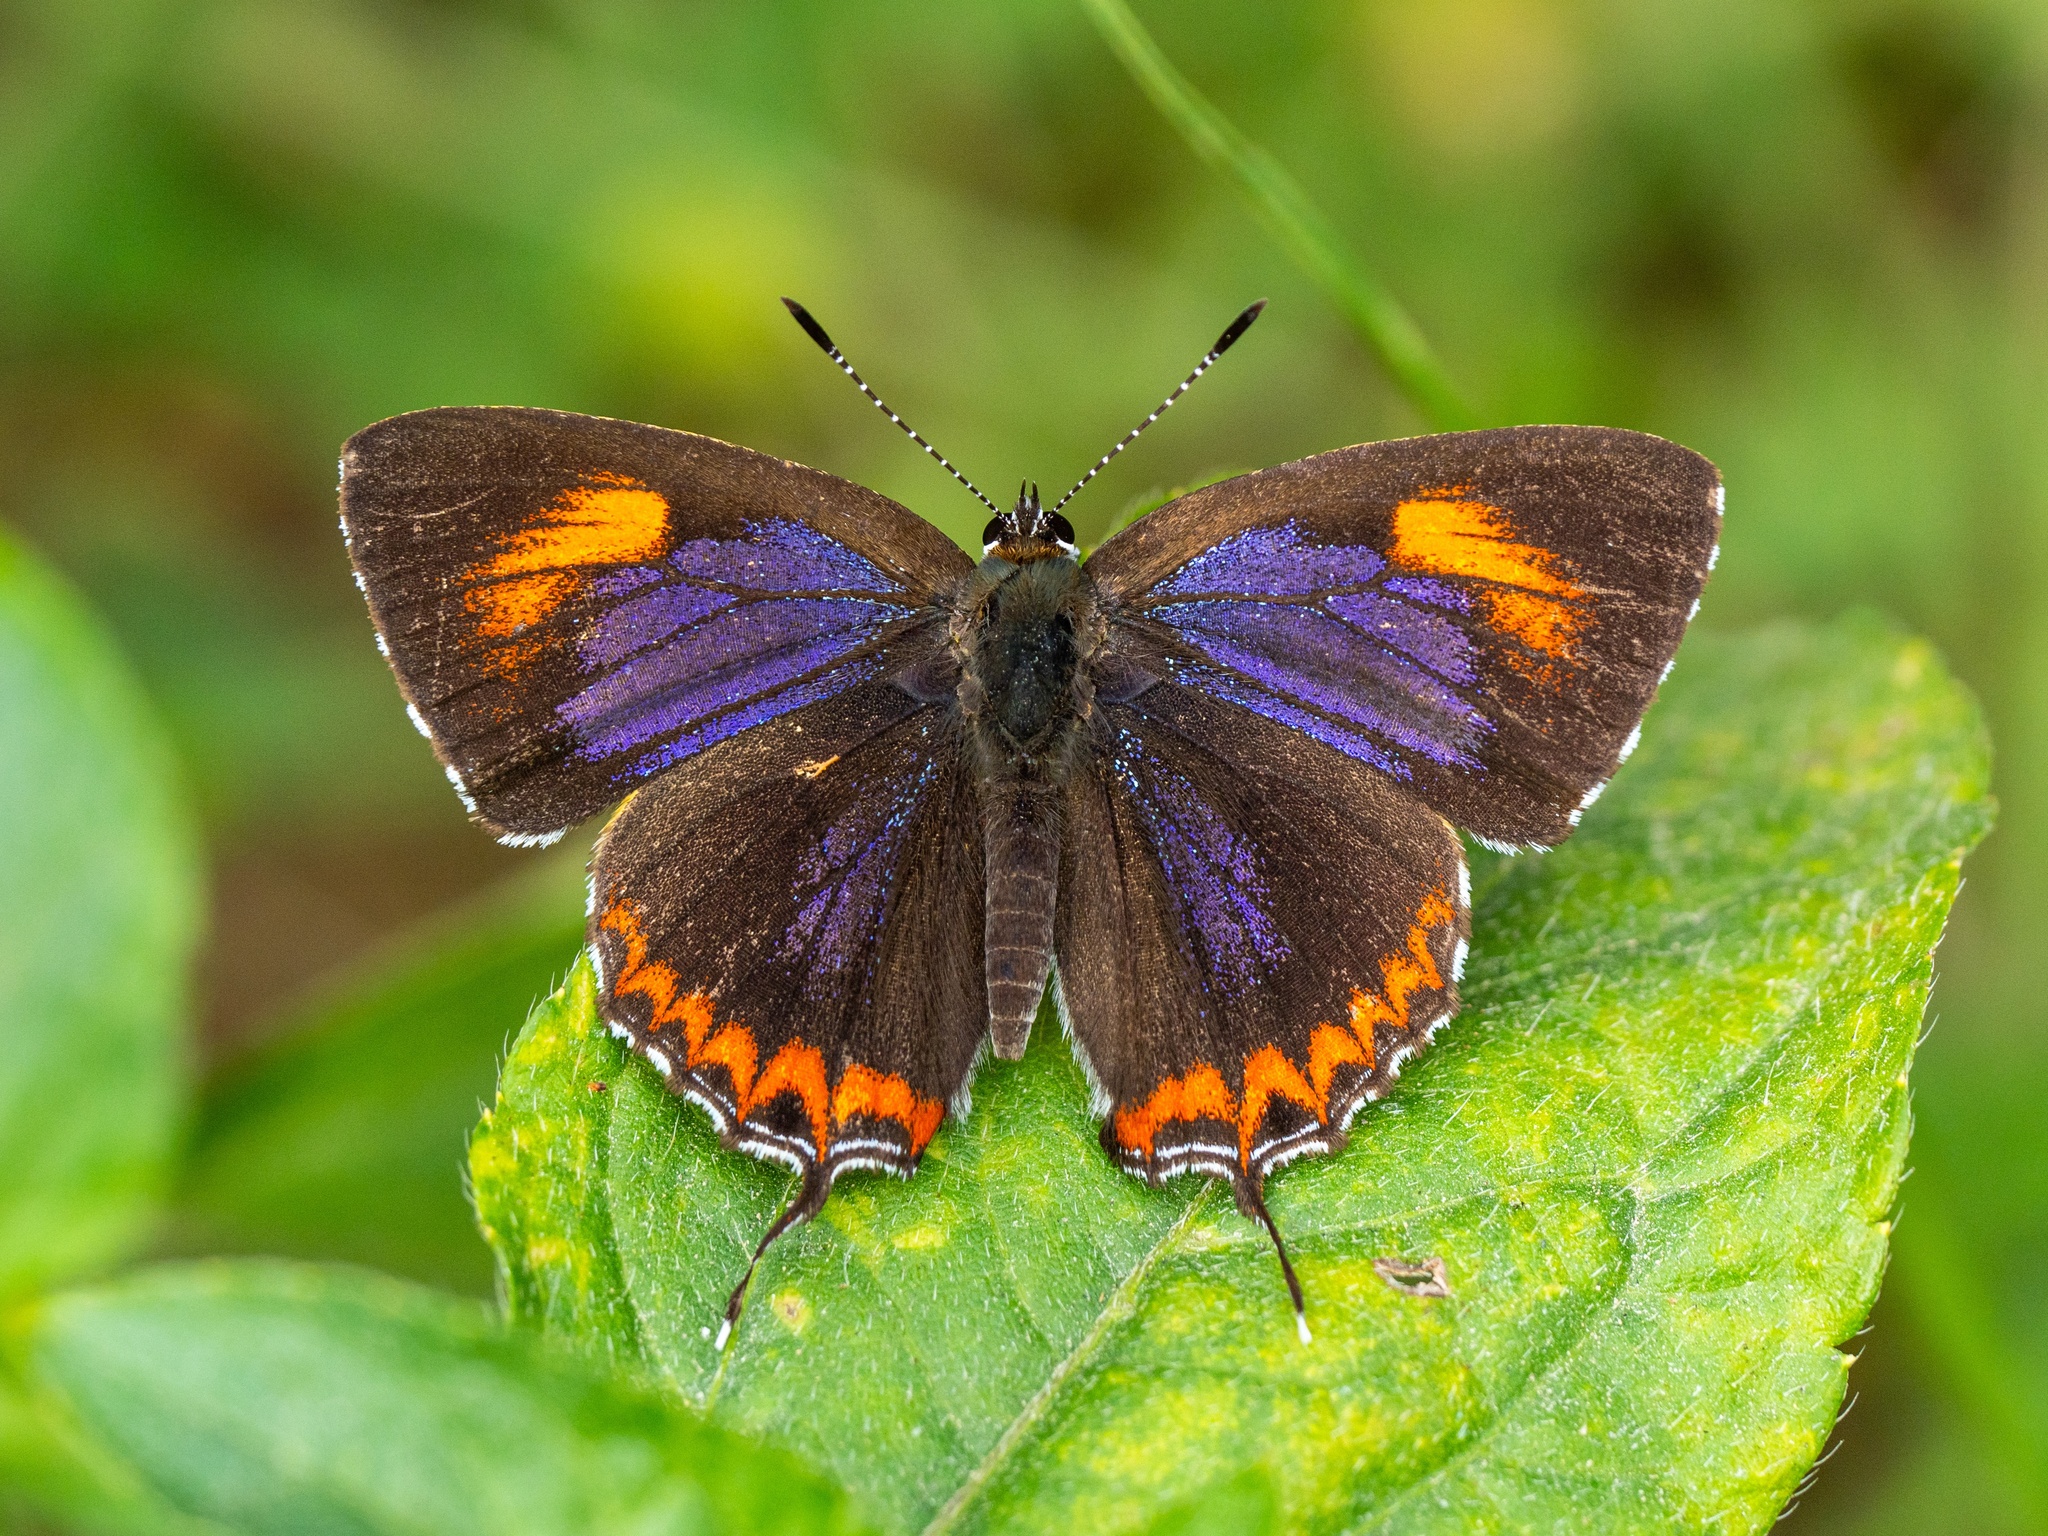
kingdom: Animalia
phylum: Arthropoda
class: Insecta
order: Lepidoptera
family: Lycaenidae
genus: Heliophorus
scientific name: Heliophorus epicles
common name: Purple sapphire
